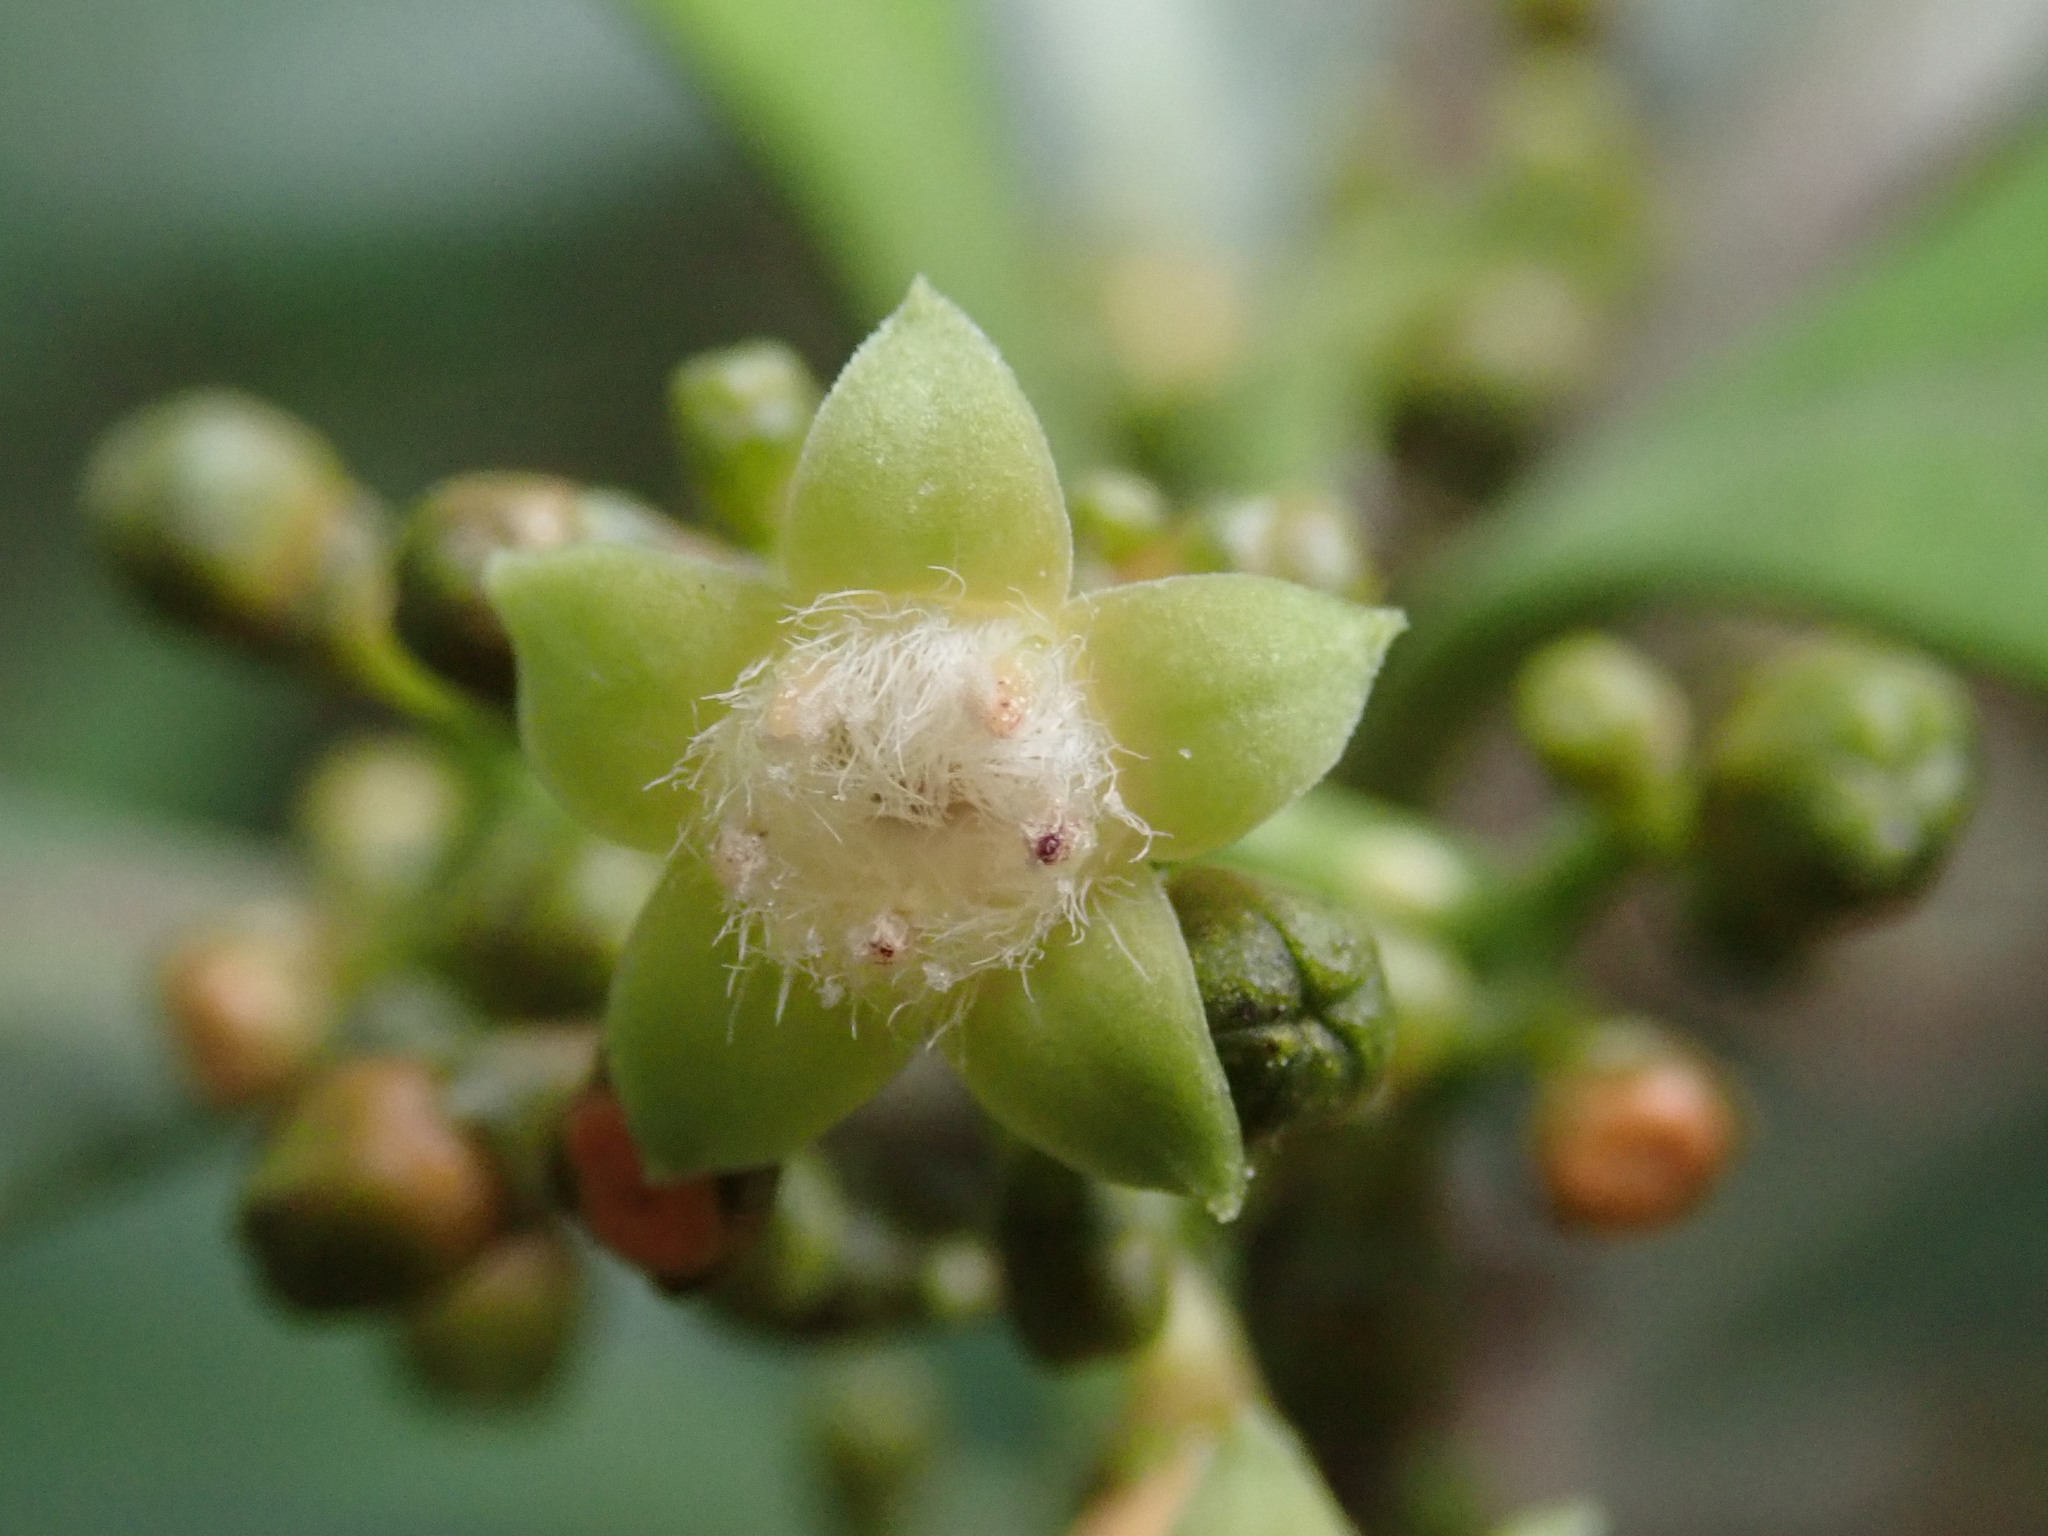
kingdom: Plantae
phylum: Tracheophyta
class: Magnoliopsida
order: Gentianales
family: Rubiaceae
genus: Psychotria
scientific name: Psychotria asiatica
